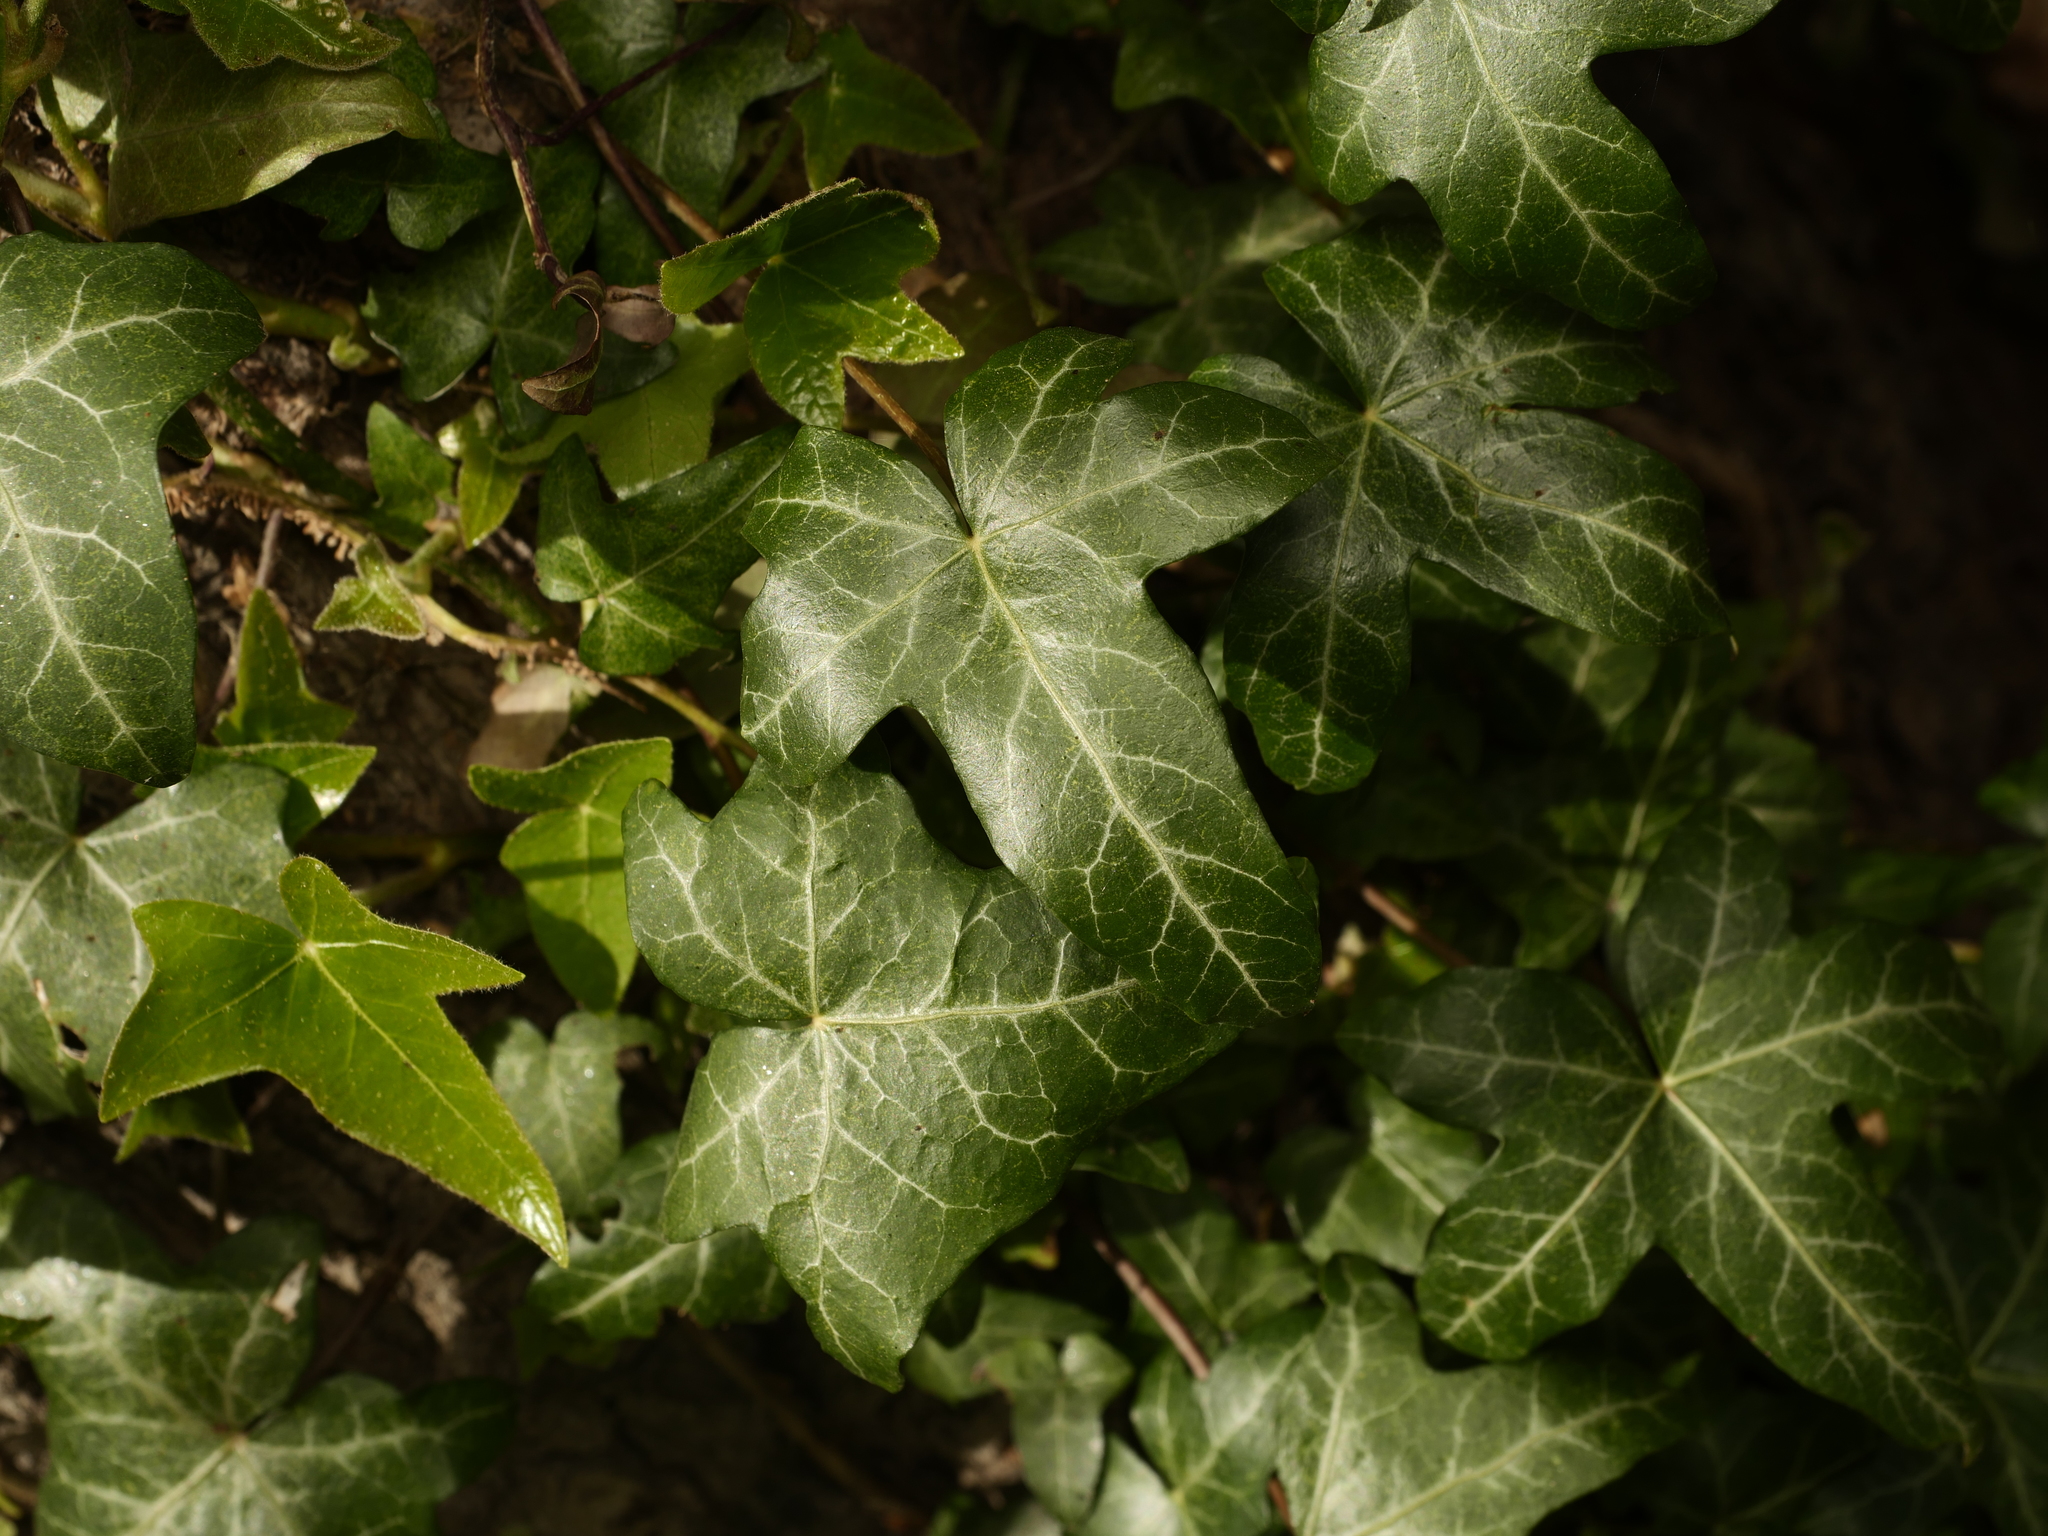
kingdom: Plantae
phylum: Tracheophyta
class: Magnoliopsida
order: Apiales
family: Araliaceae
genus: Hedera
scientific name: Hedera helix
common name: Ivy
